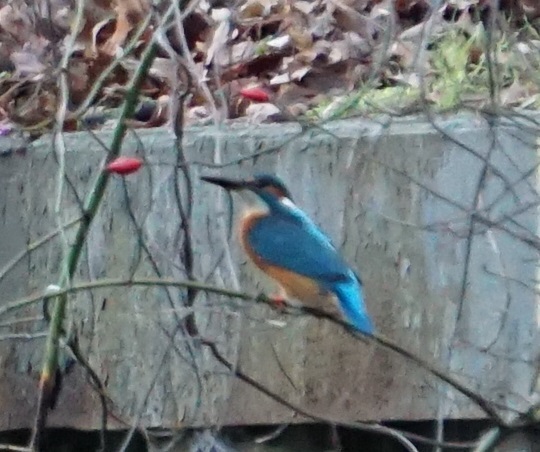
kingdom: Animalia
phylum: Chordata
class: Aves
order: Coraciiformes
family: Alcedinidae
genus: Alcedo
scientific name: Alcedo atthis
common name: Common kingfisher
